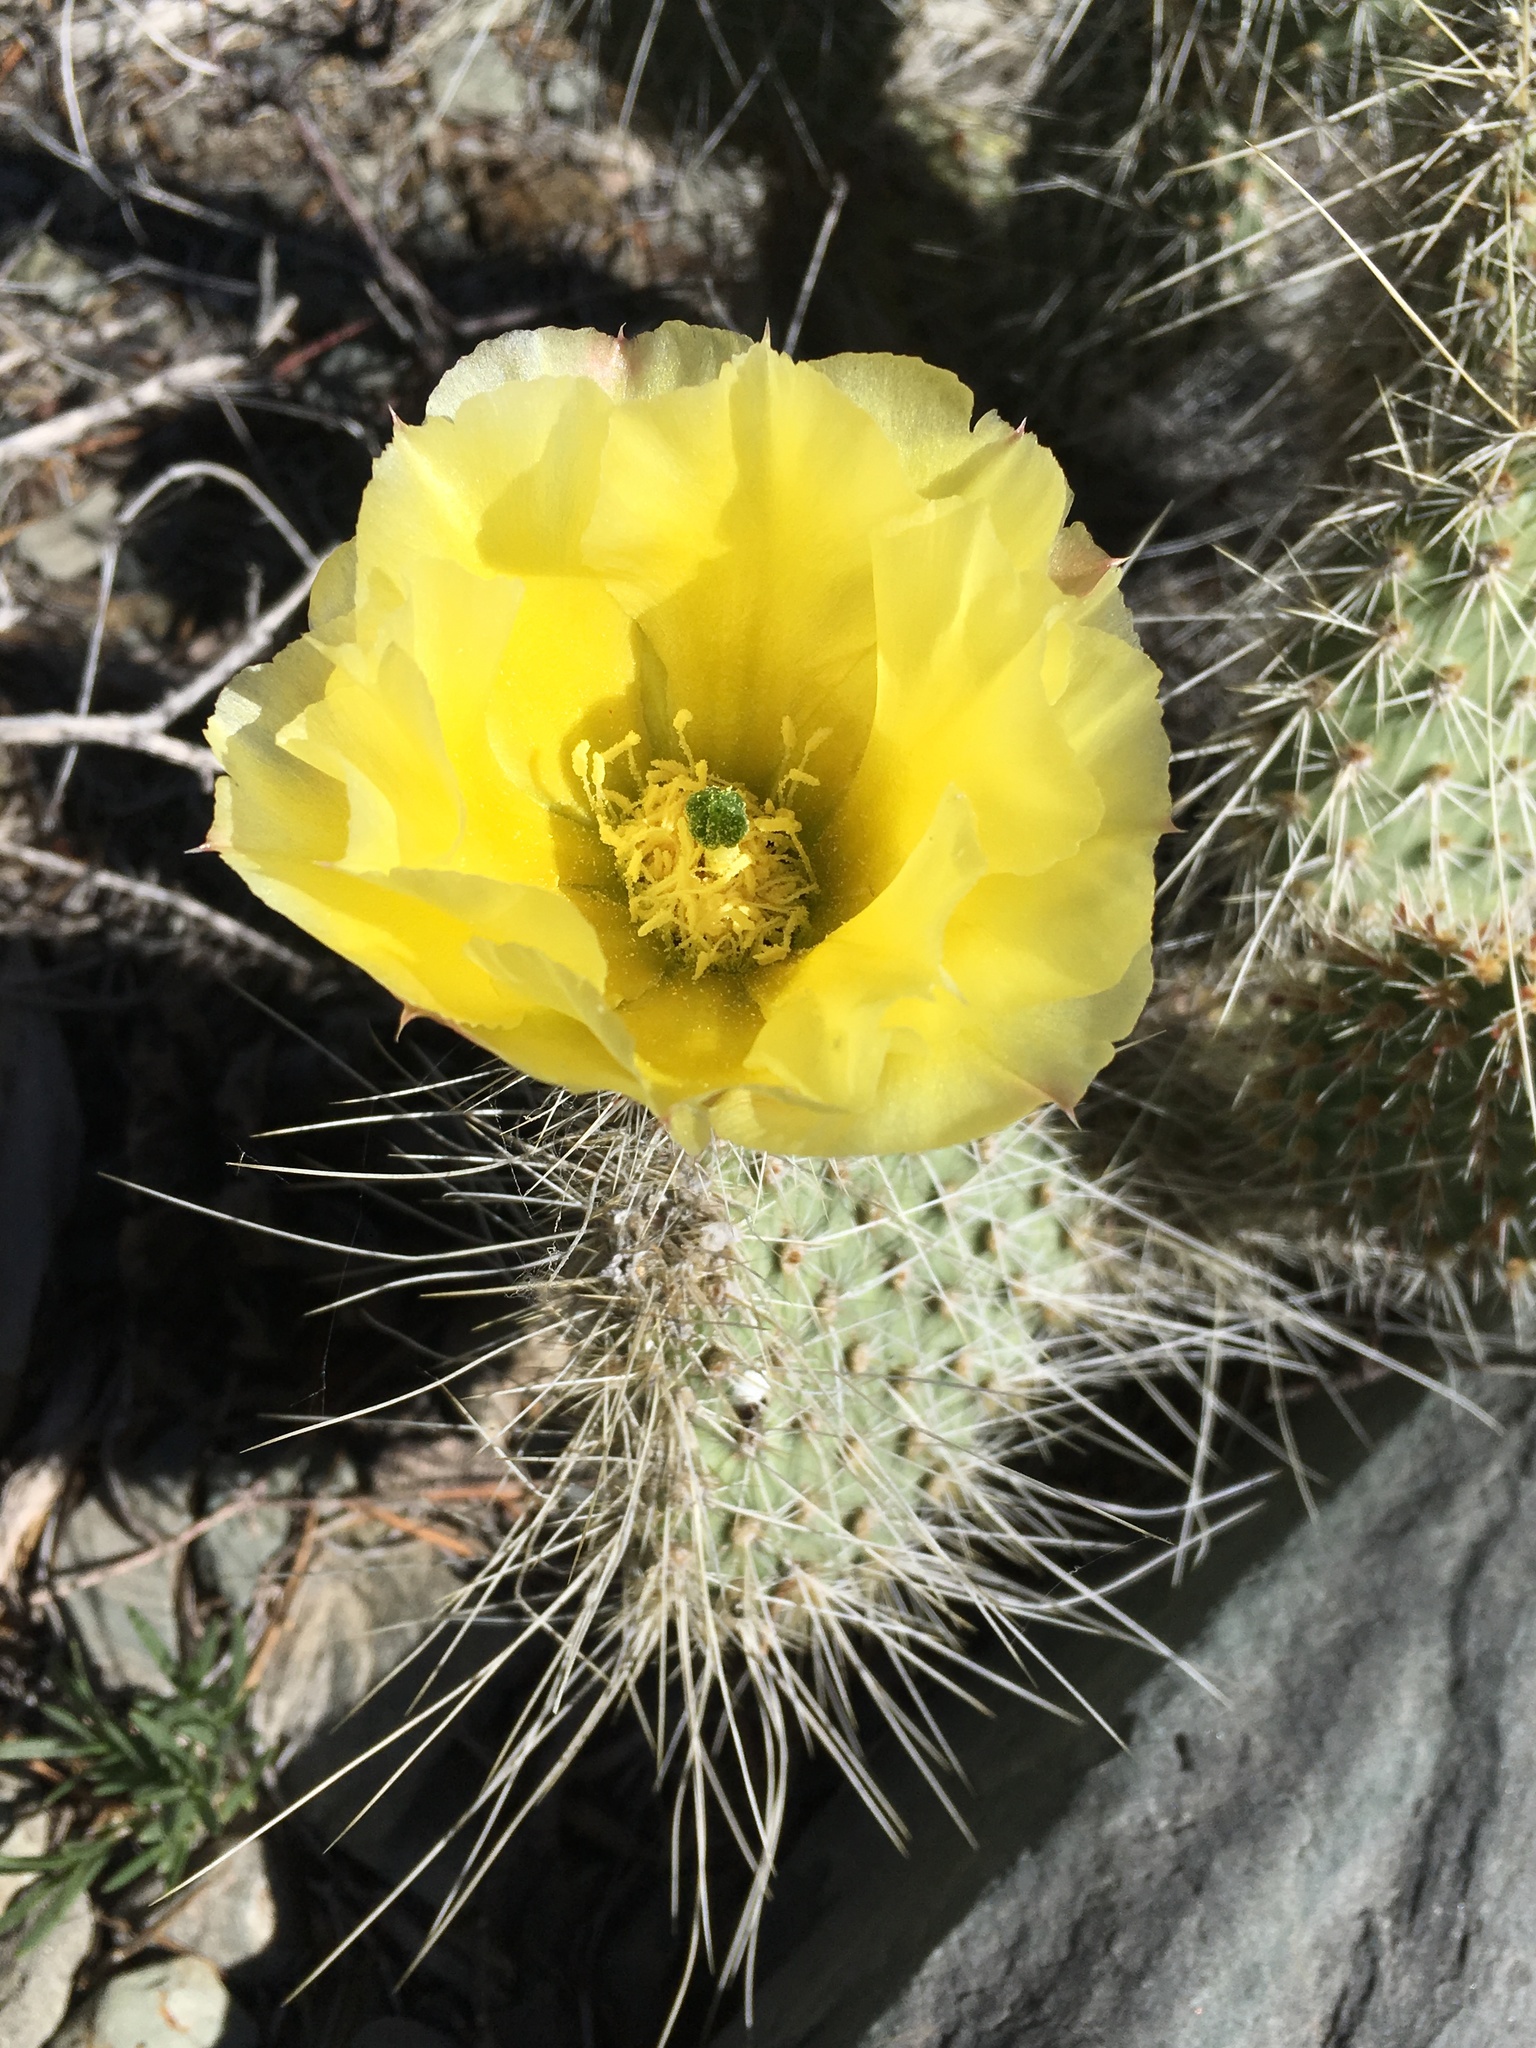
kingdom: Plantae
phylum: Tracheophyta
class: Magnoliopsida
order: Caryophyllales
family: Cactaceae
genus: Opuntia
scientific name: Opuntia polyacantha
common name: Plains prickly-pear
